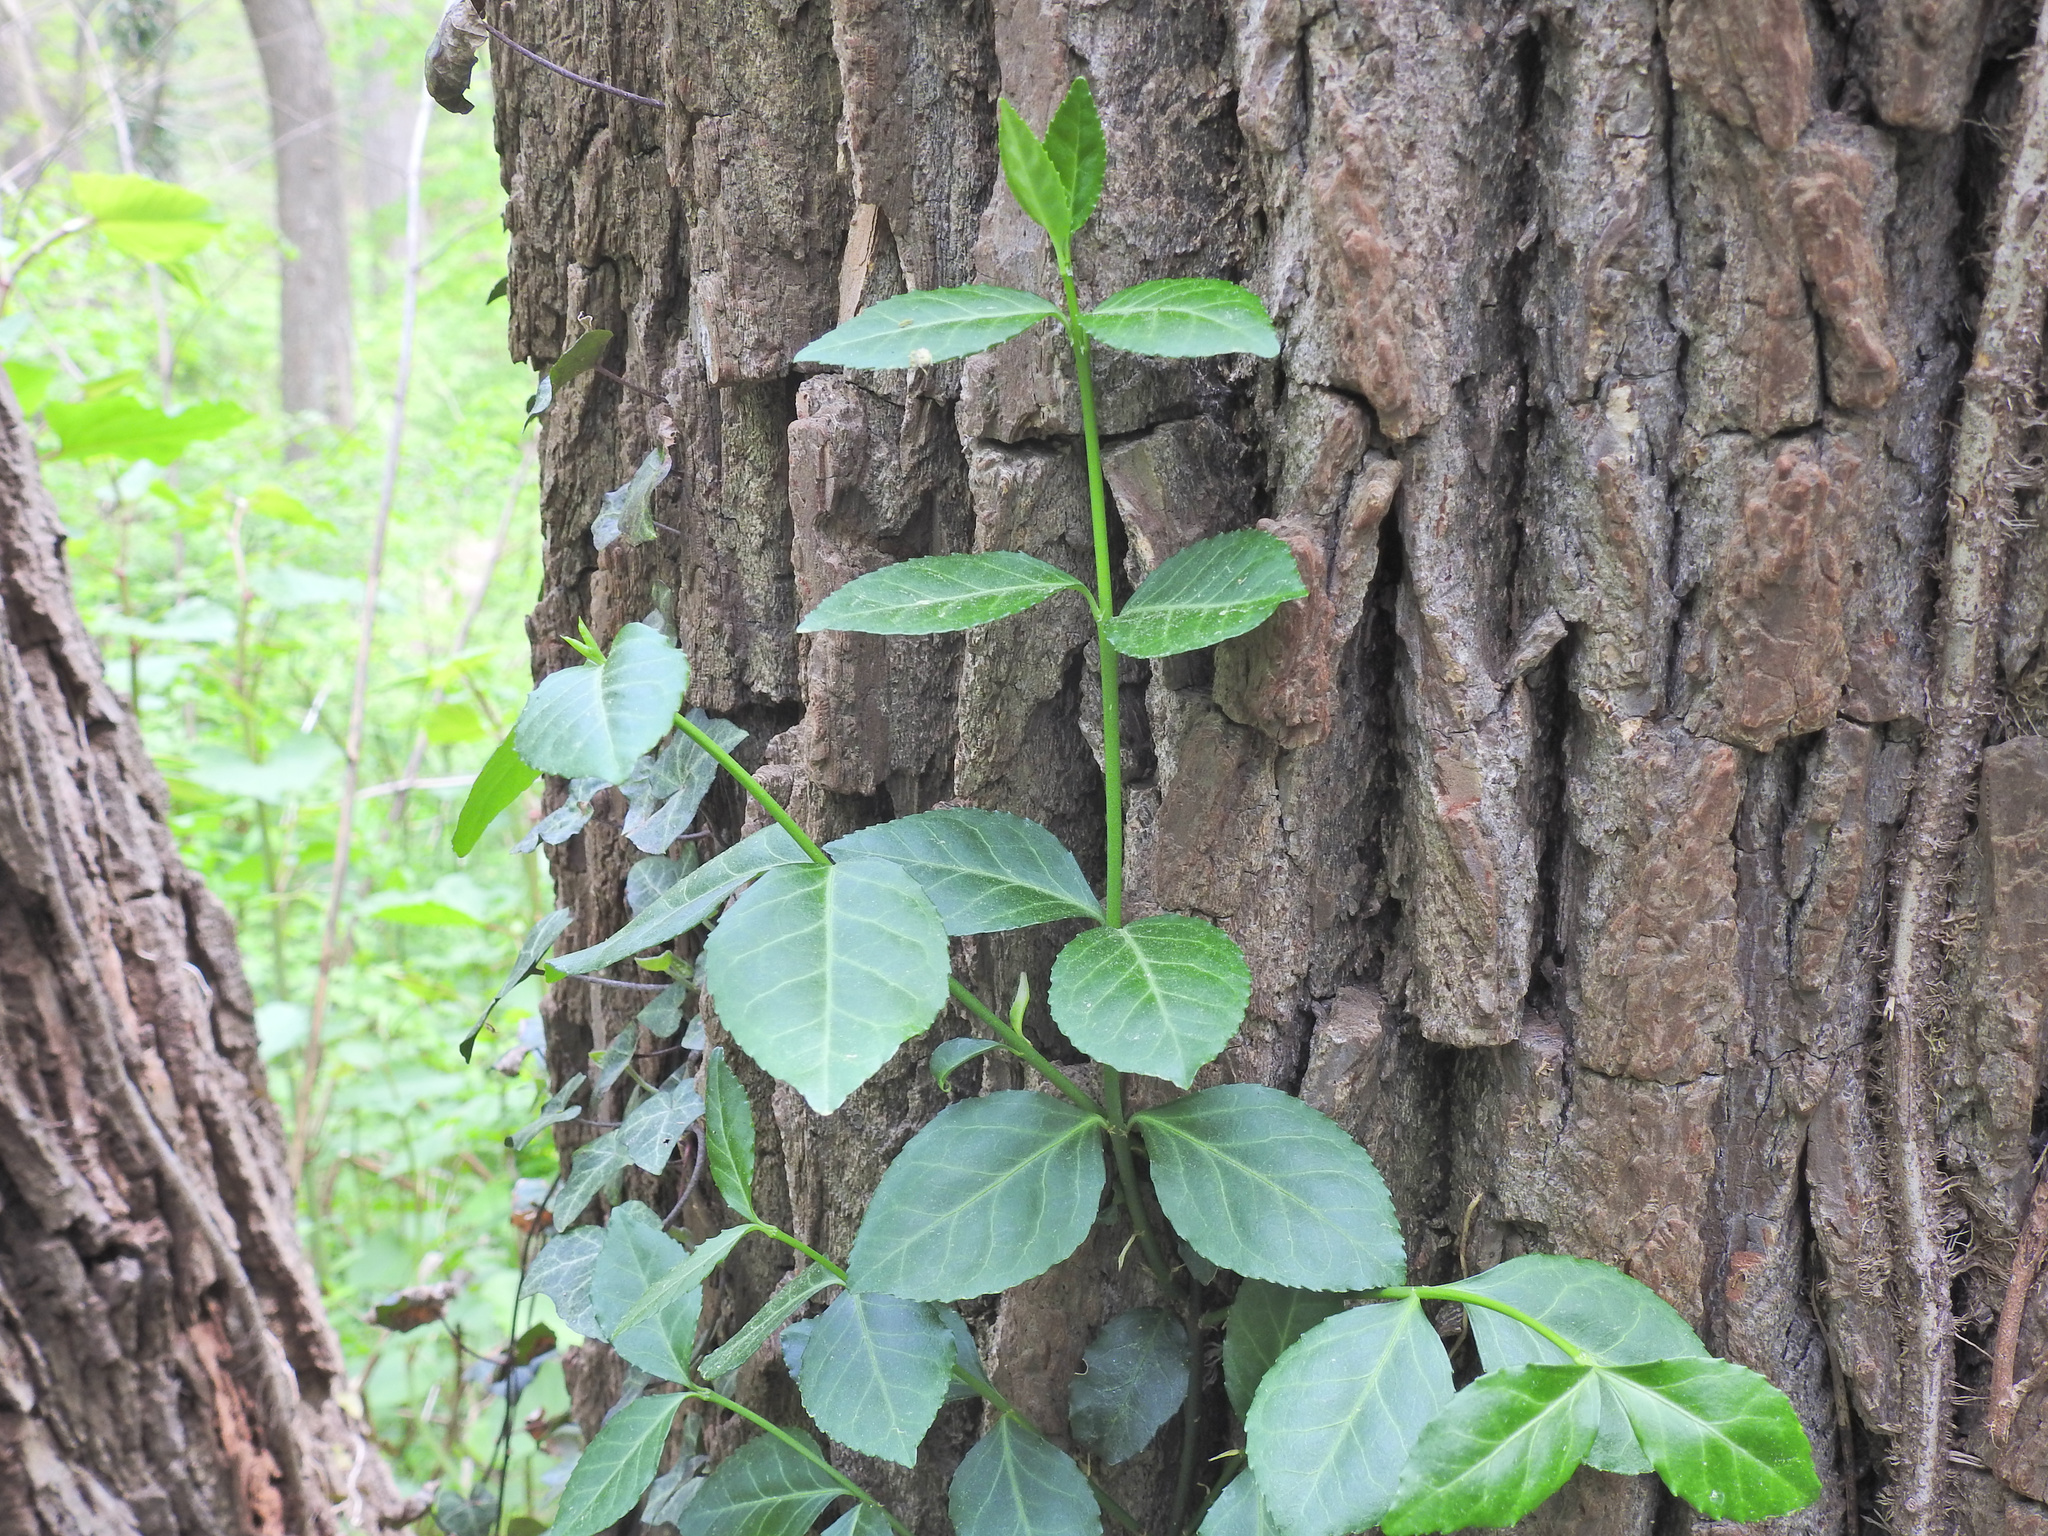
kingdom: Plantae
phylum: Tracheophyta
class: Magnoliopsida
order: Celastrales
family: Celastraceae
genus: Euonymus
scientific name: Euonymus fortunei
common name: Climbing euonymus
